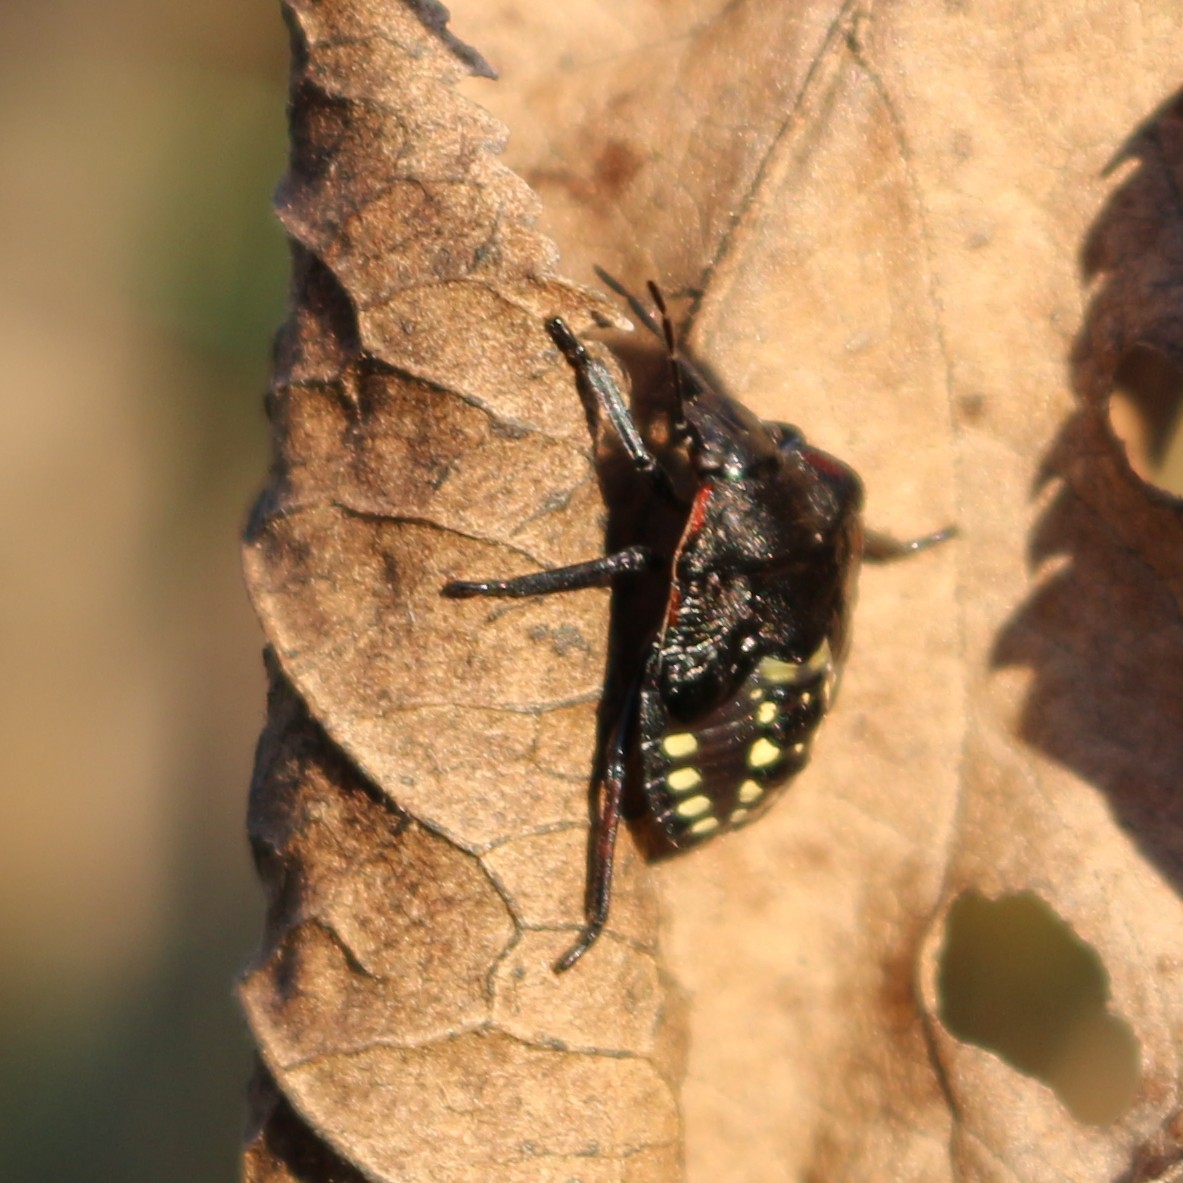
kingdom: Animalia
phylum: Arthropoda
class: Insecta
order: Hemiptera
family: Pentatomidae
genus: Nezara
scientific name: Nezara viridula
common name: Southern green stink bug
